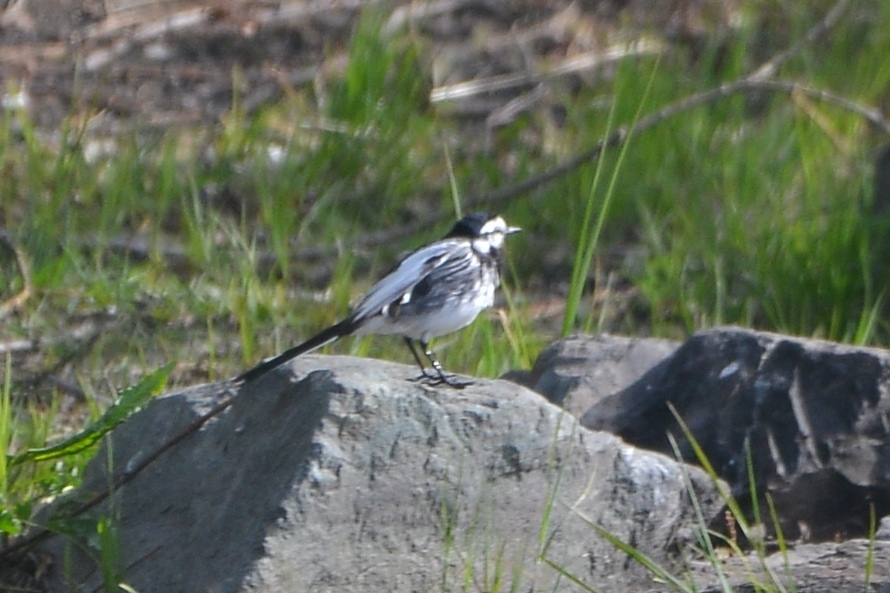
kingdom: Animalia
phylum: Chordata
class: Aves
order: Passeriformes
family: Motacillidae
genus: Motacilla
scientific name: Motacilla alba
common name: White wagtail
